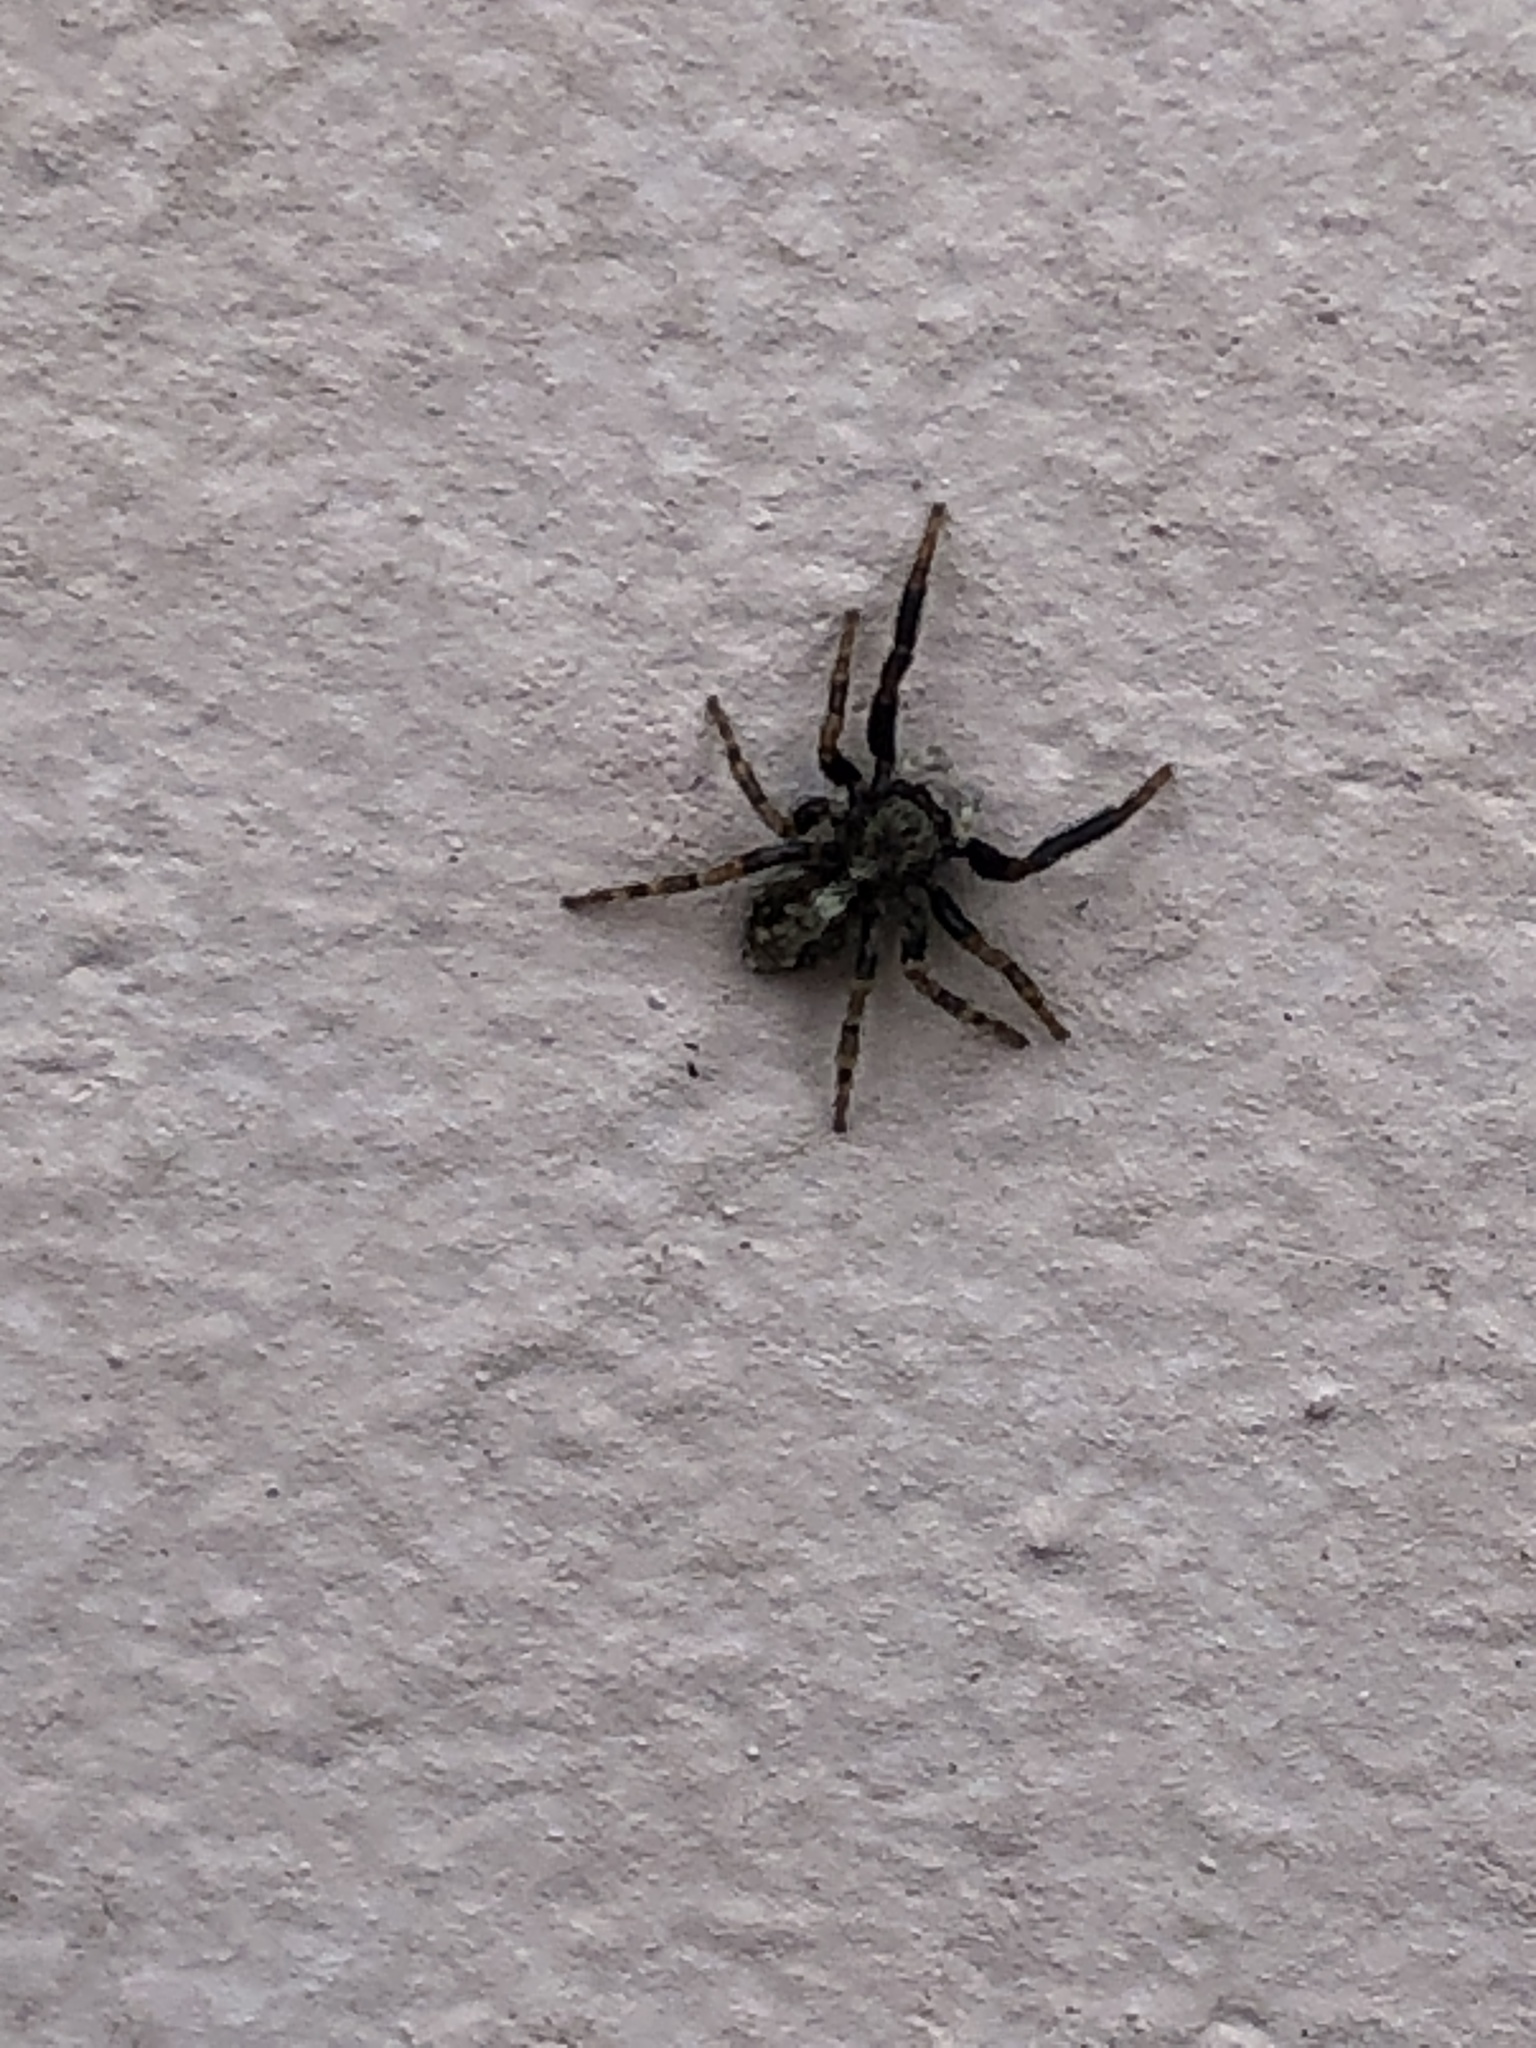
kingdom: Animalia
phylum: Arthropoda
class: Arachnida
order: Araneae
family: Salticidae
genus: Pseudeuophrys
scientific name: Pseudeuophrys lanigera
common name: Jumping spider
